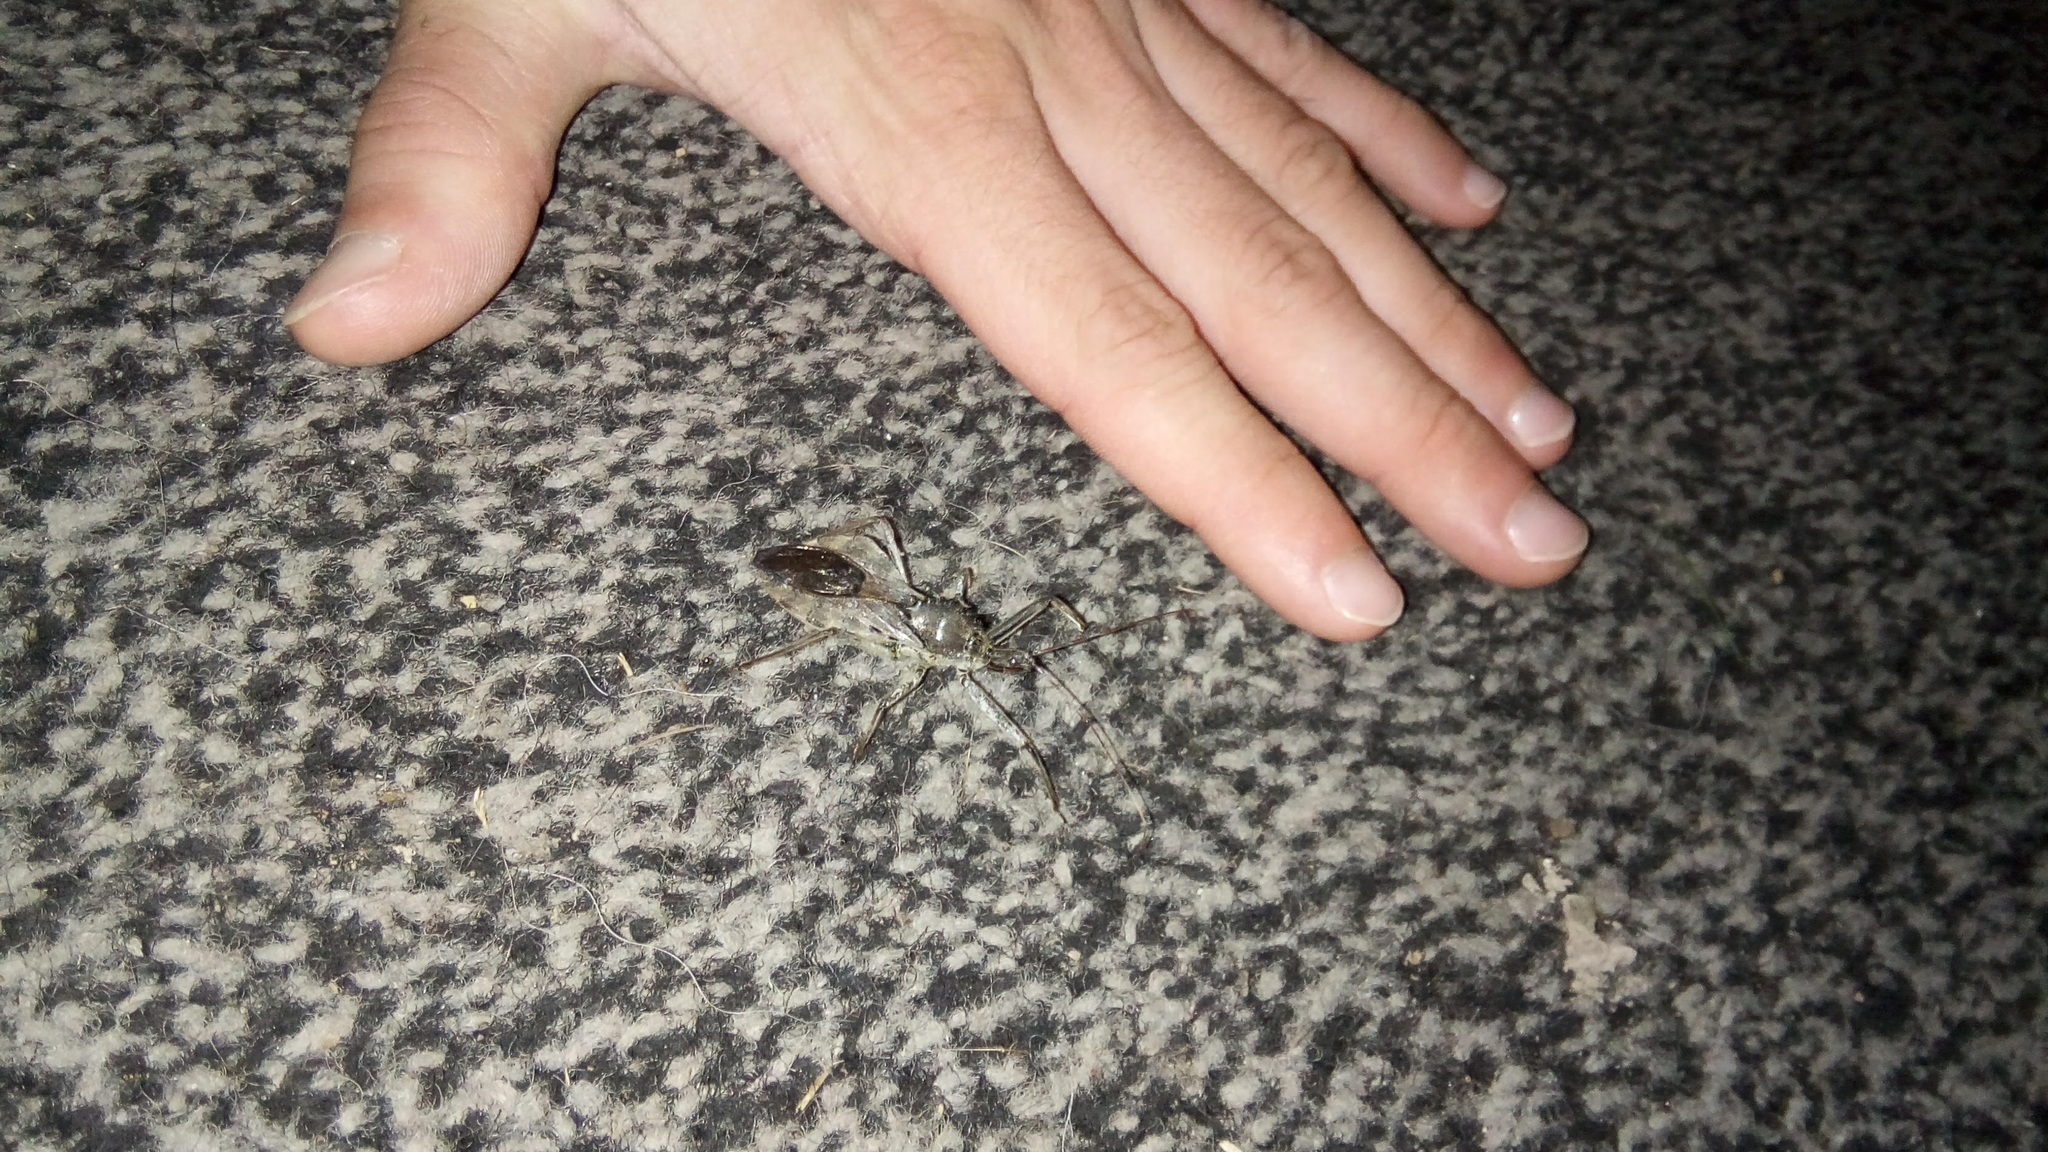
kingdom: Animalia
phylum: Arthropoda
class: Insecta
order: Hemiptera
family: Reduviidae
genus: Arilus
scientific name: Arilus cristatus
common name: North american wheel bug
